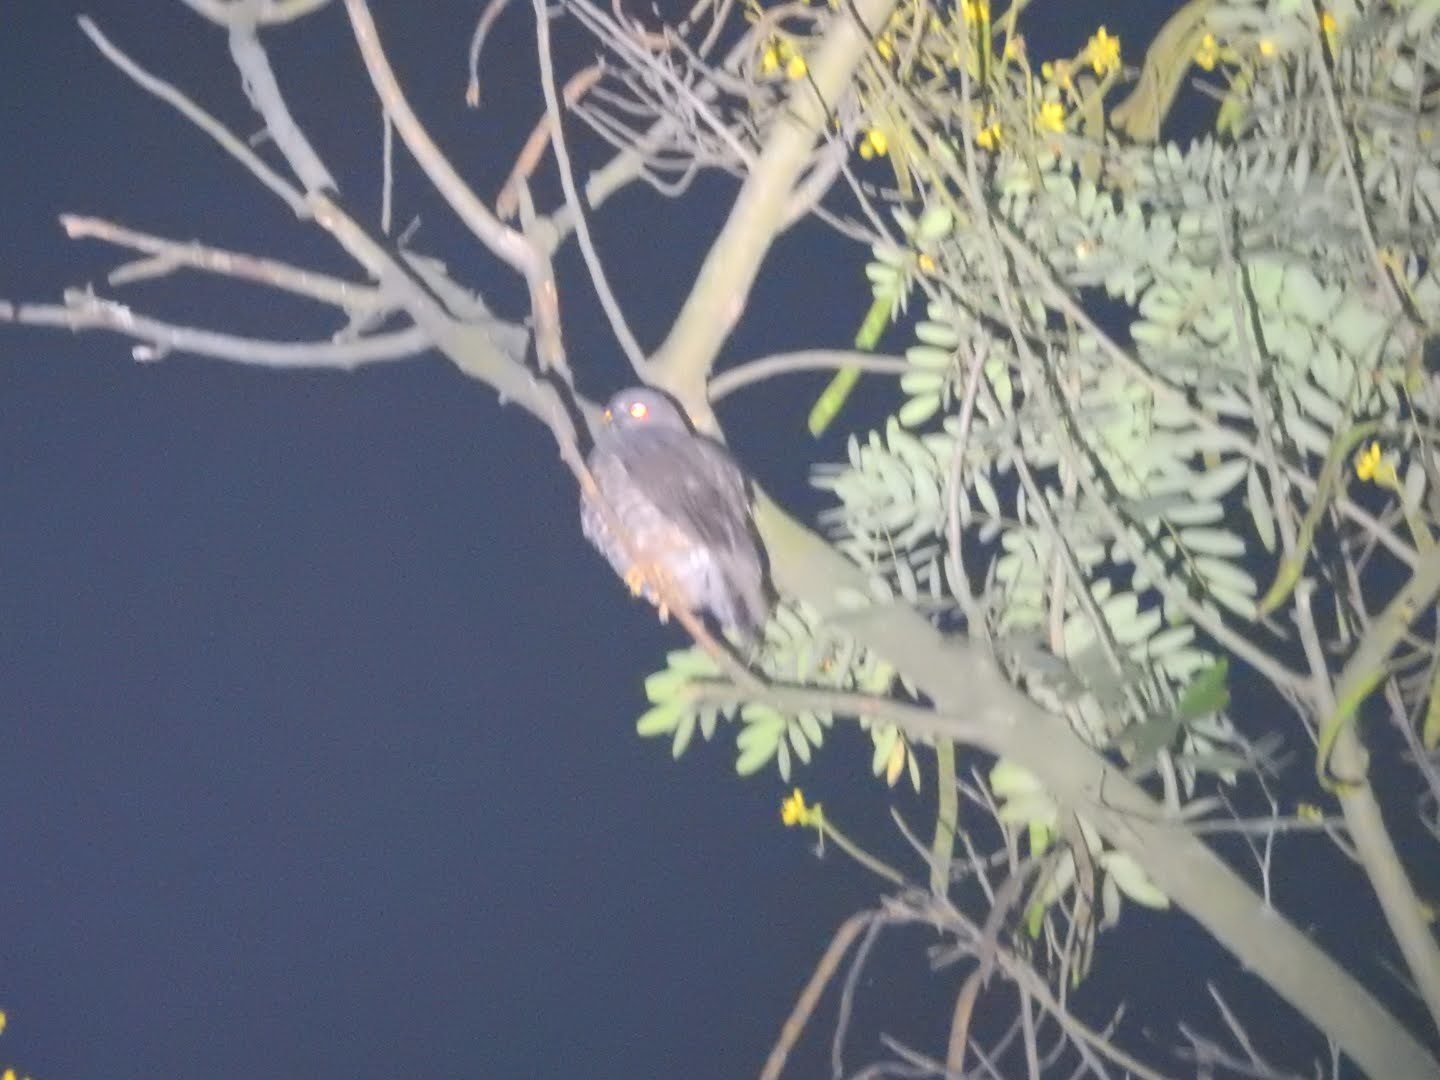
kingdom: Animalia
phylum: Chordata
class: Aves
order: Strigiformes
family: Strigidae
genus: Ninox
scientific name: Ninox scutulata
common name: Brown hawk-owl
